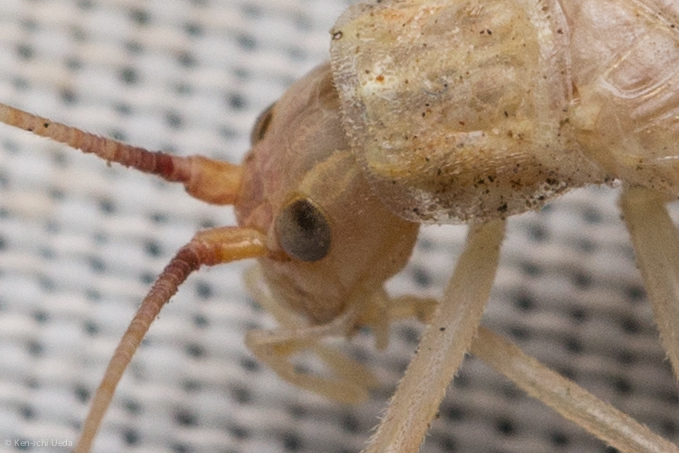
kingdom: Animalia
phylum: Arthropoda
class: Insecta
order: Orthoptera
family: Gryllidae
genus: Oecanthus
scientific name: Oecanthus californicus
